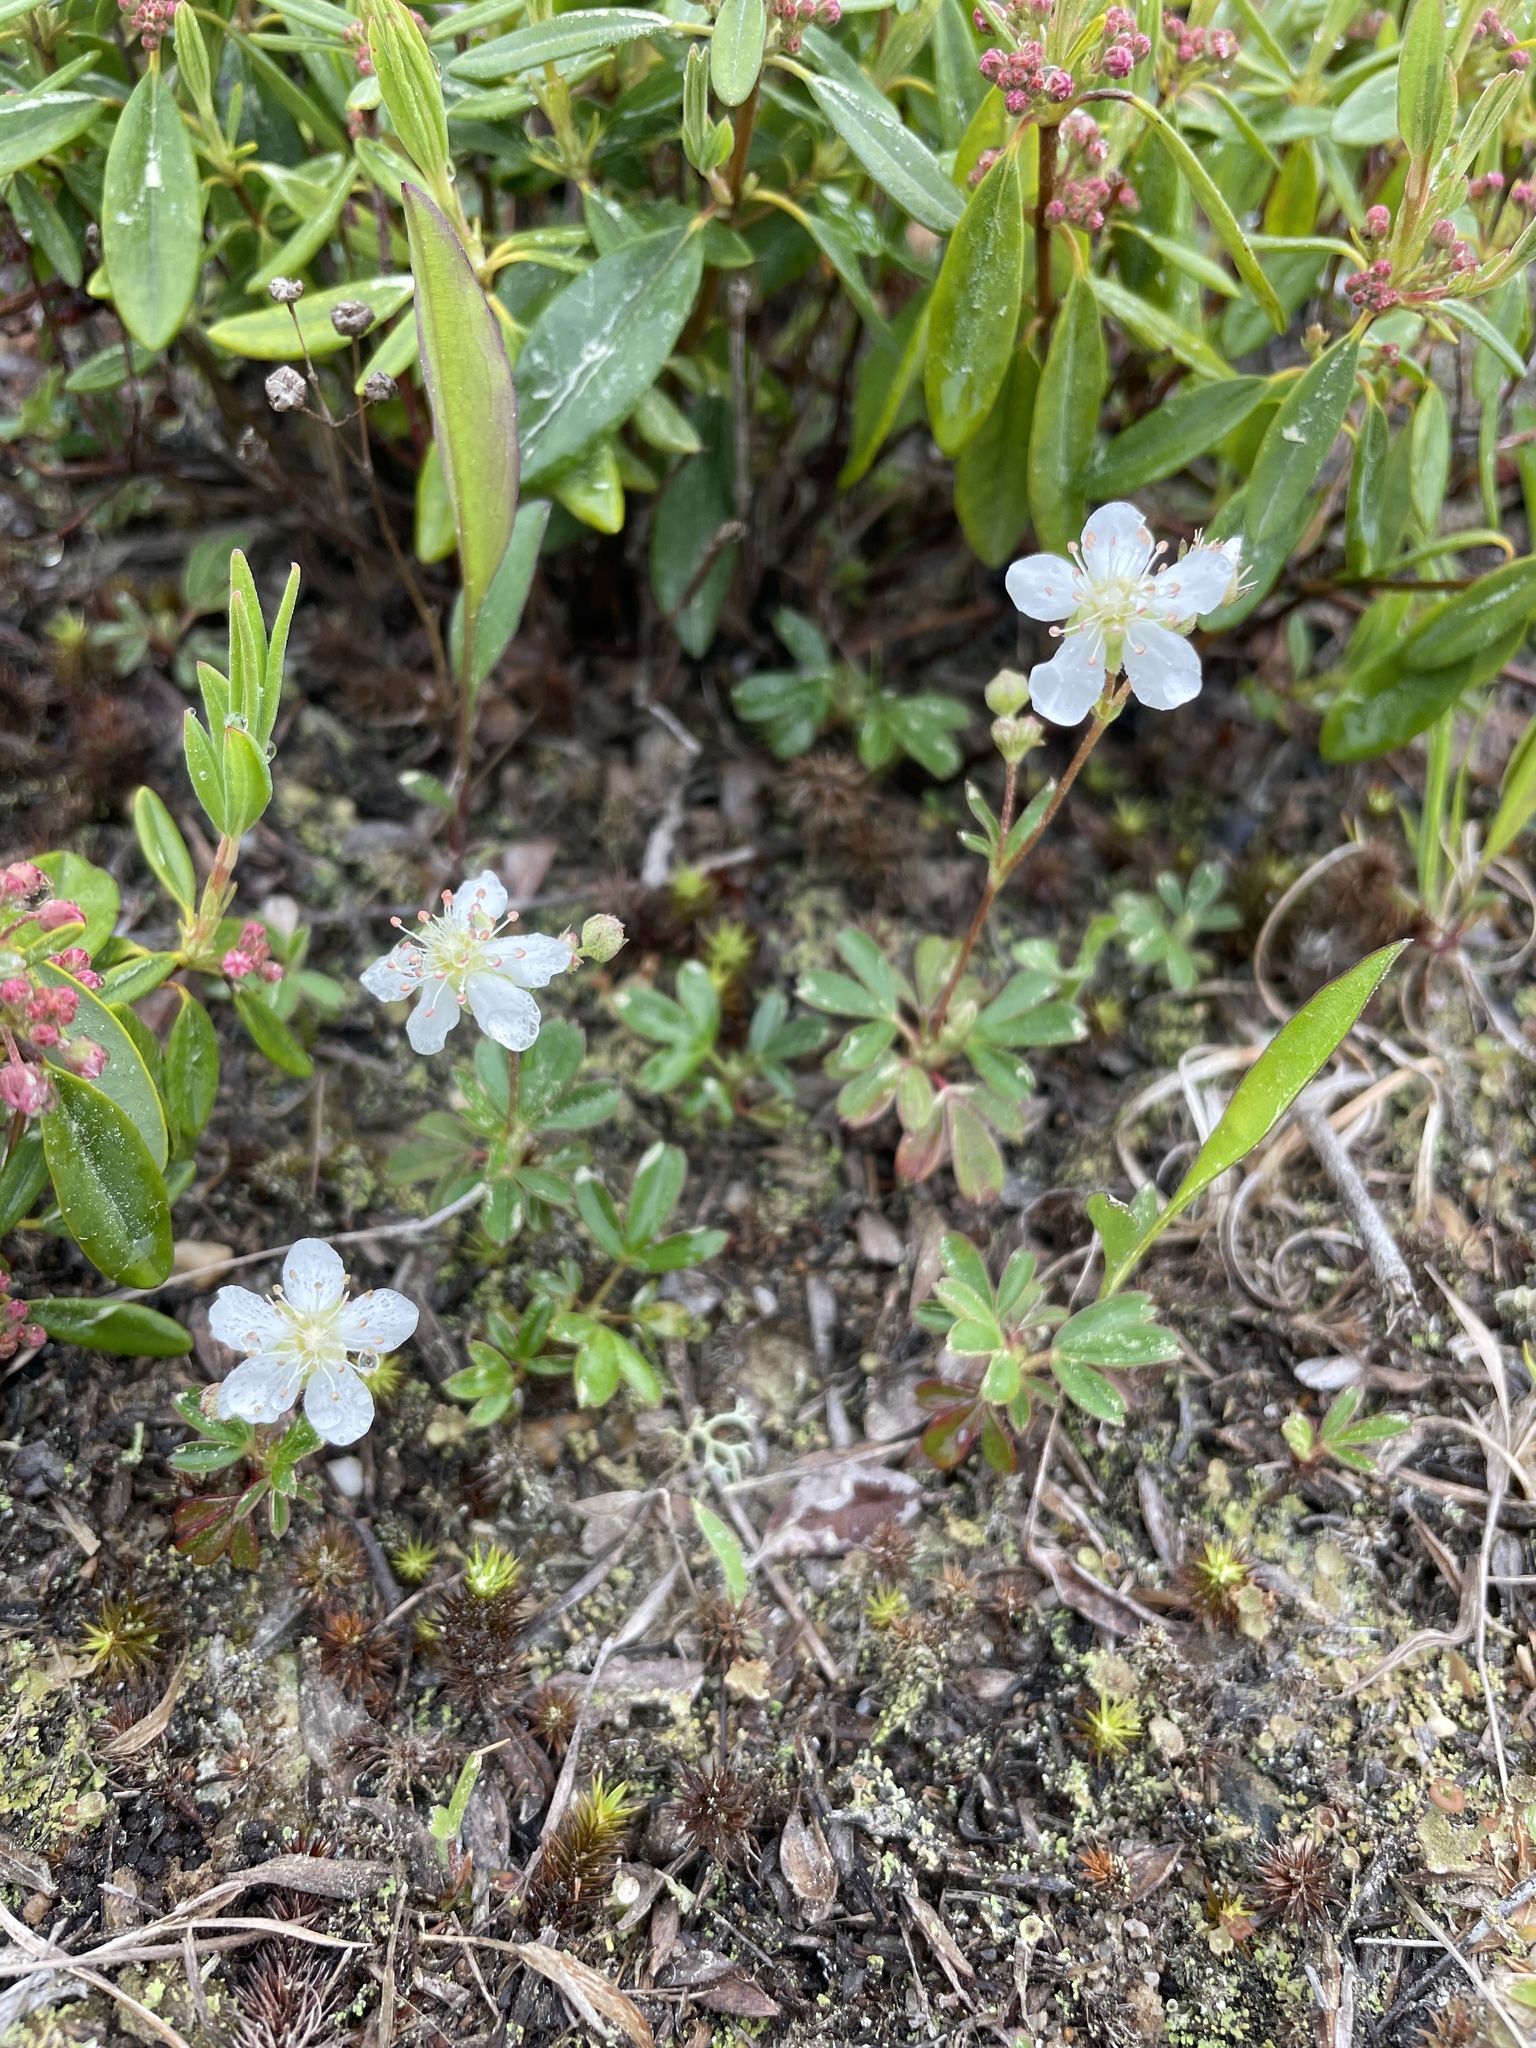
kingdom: Plantae
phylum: Tracheophyta
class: Magnoliopsida
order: Rosales
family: Rosaceae
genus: Sibbaldia
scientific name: Sibbaldia tridentata
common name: Three-toothed cinquefoil
